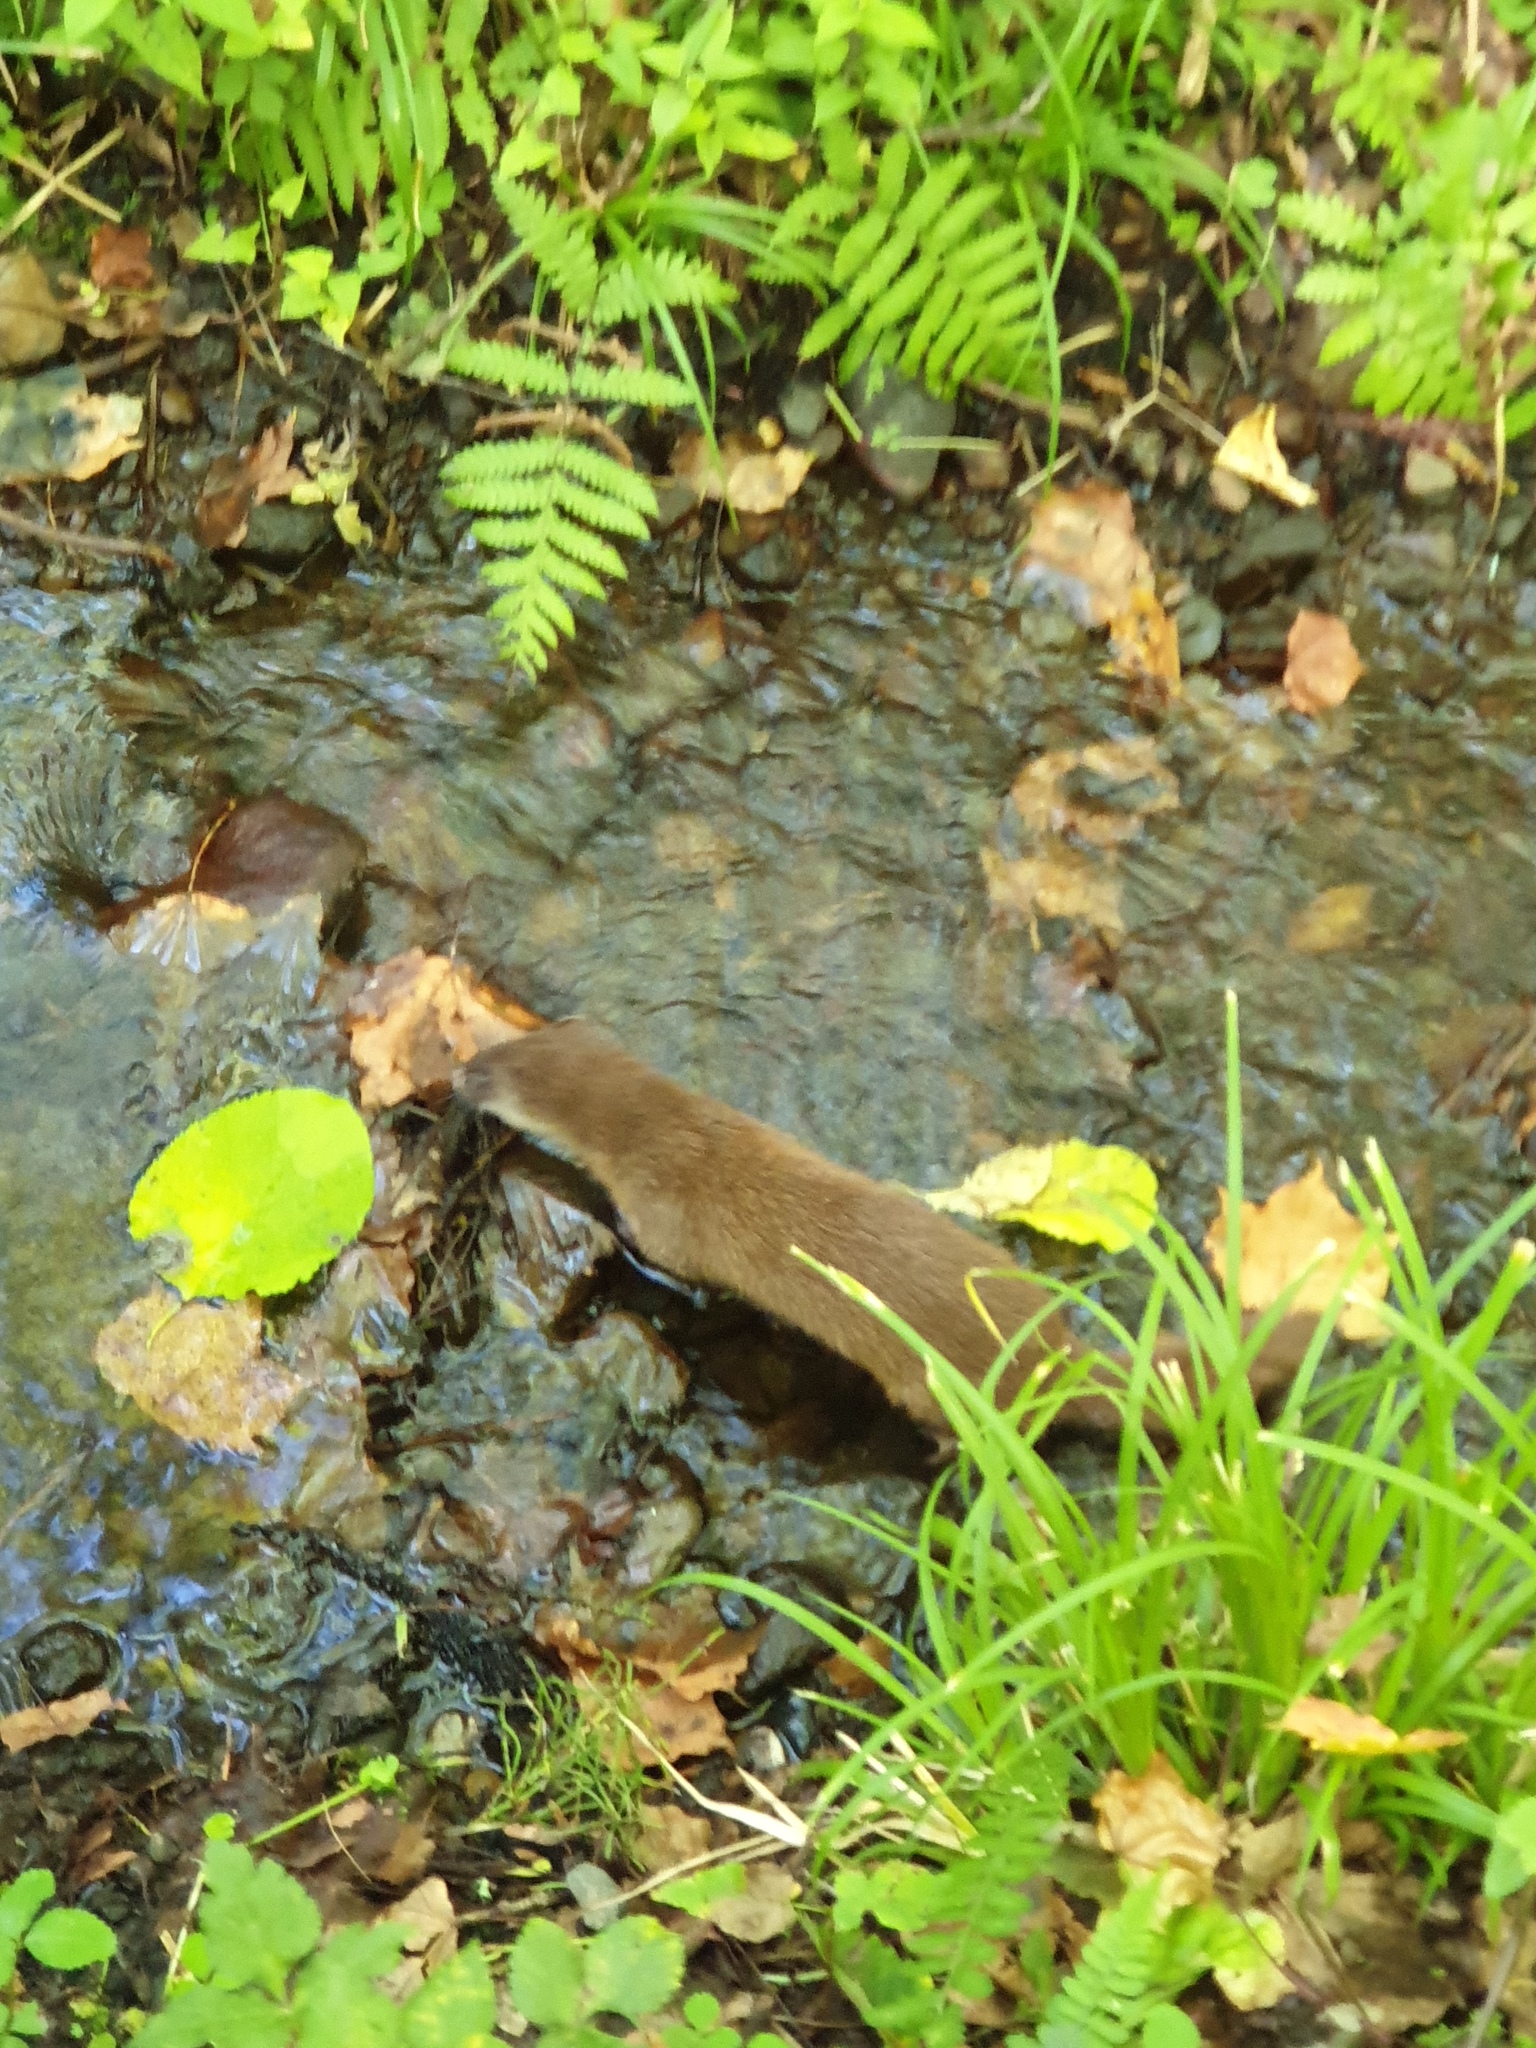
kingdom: Animalia
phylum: Chordata
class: Mammalia
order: Carnivora
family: Mustelidae
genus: Mustela
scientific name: Mustela itatsi
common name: Japanese weasel
